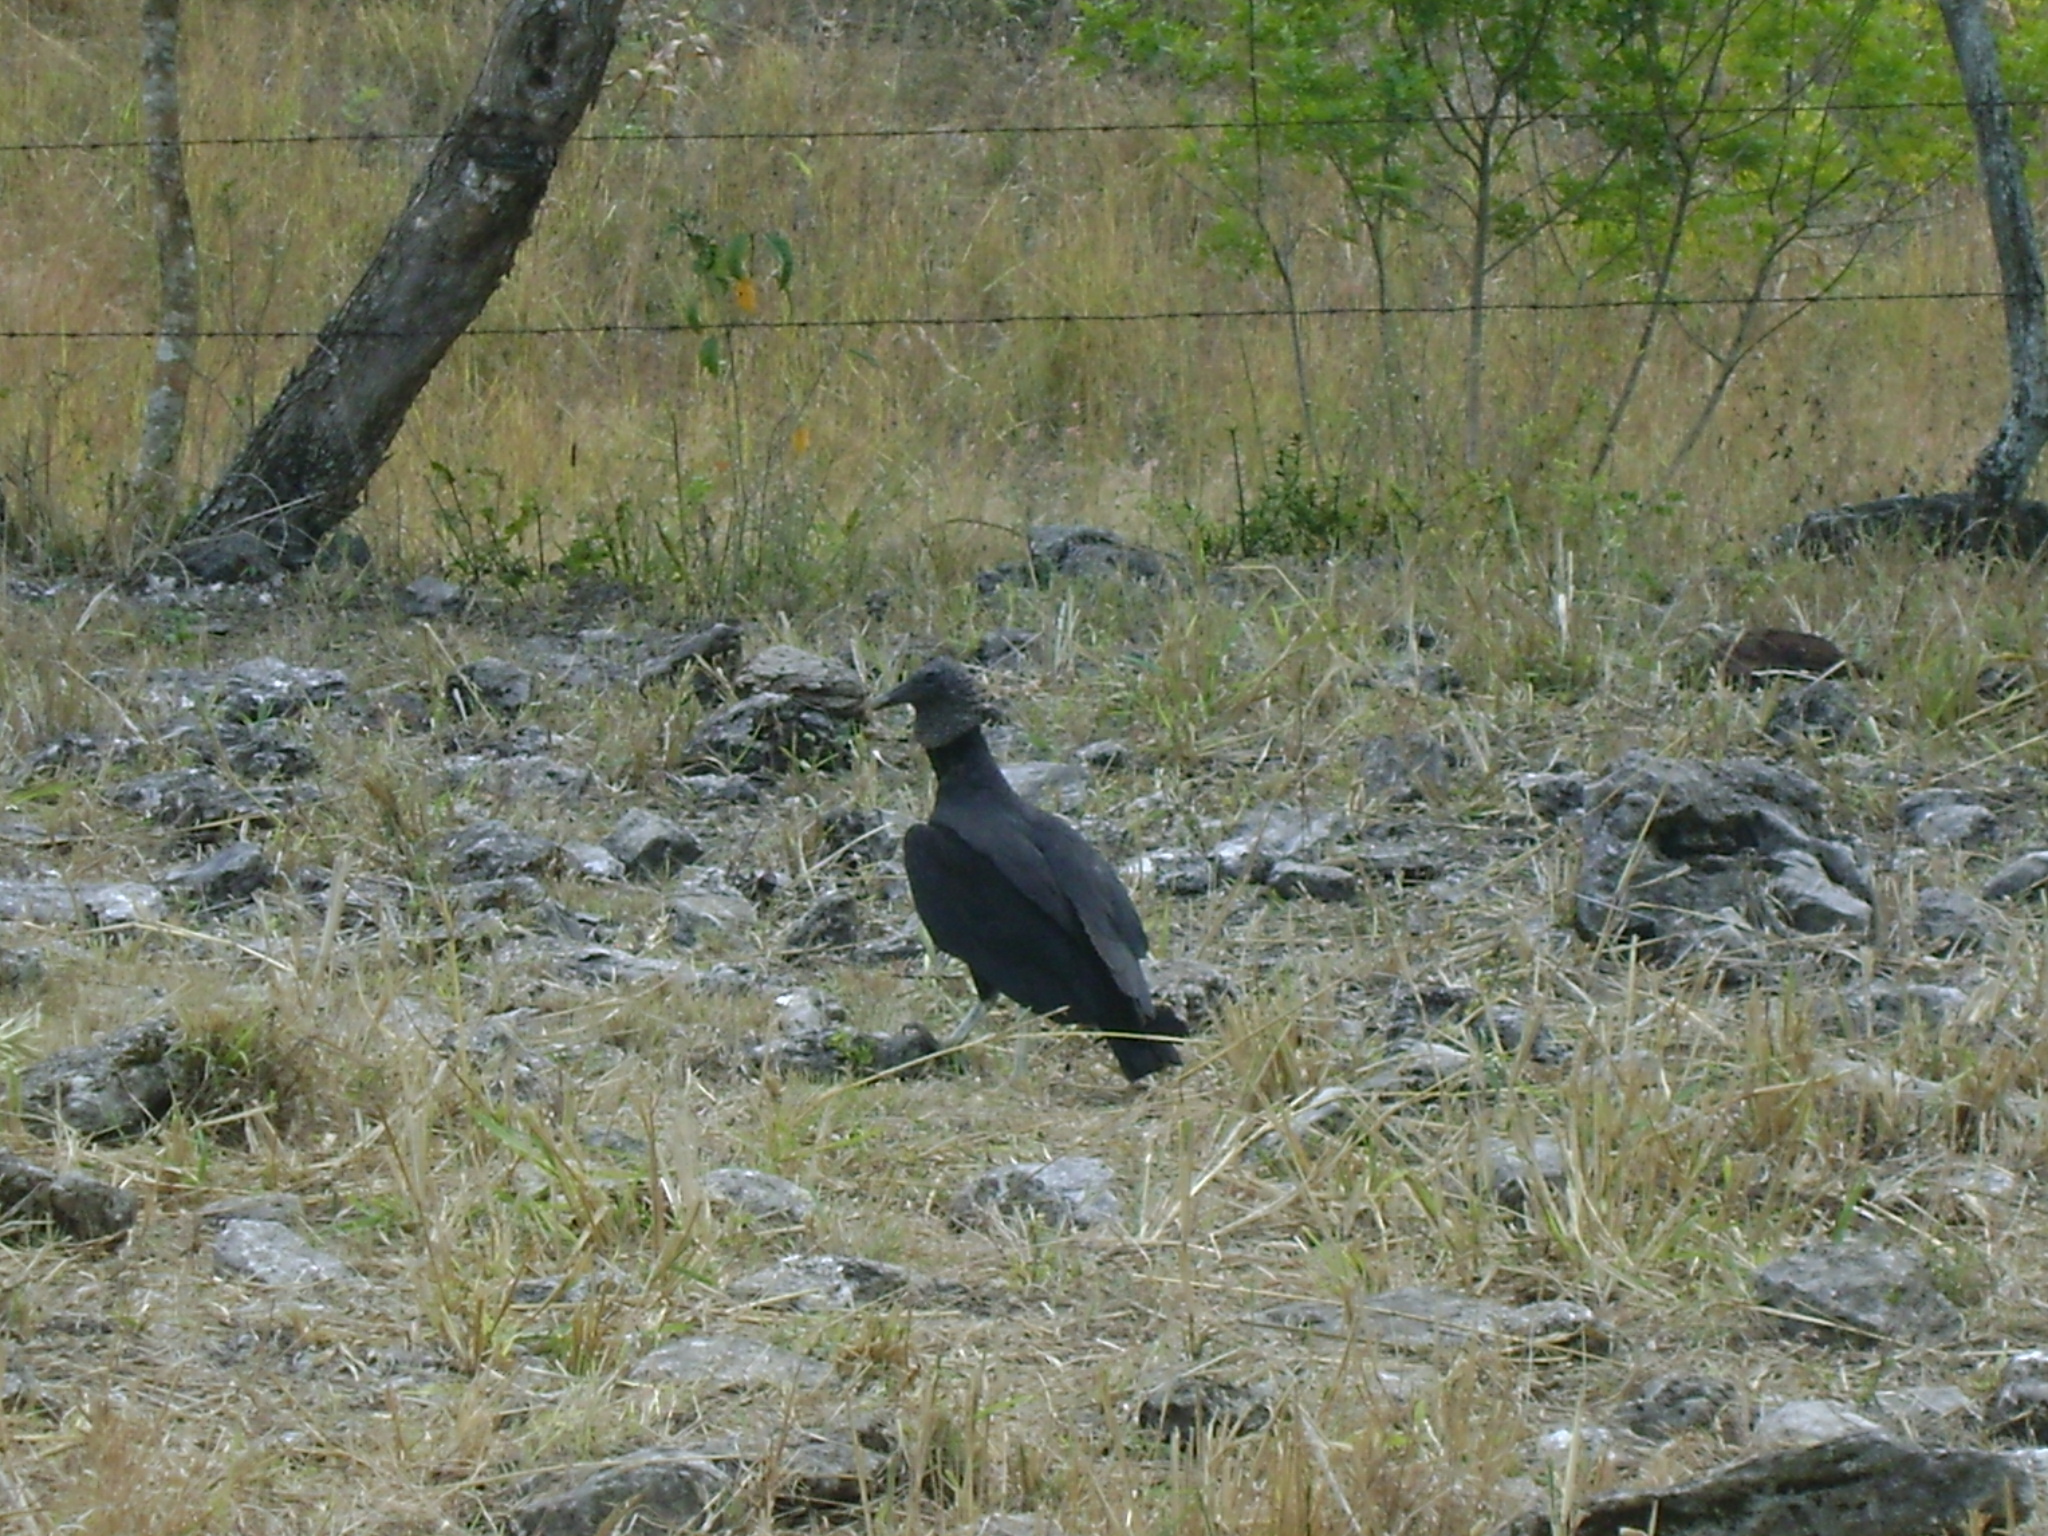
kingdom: Animalia
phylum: Chordata
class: Aves
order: Accipitriformes
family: Cathartidae
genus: Coragyps
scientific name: Coragyps atratus
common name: Black vulture
